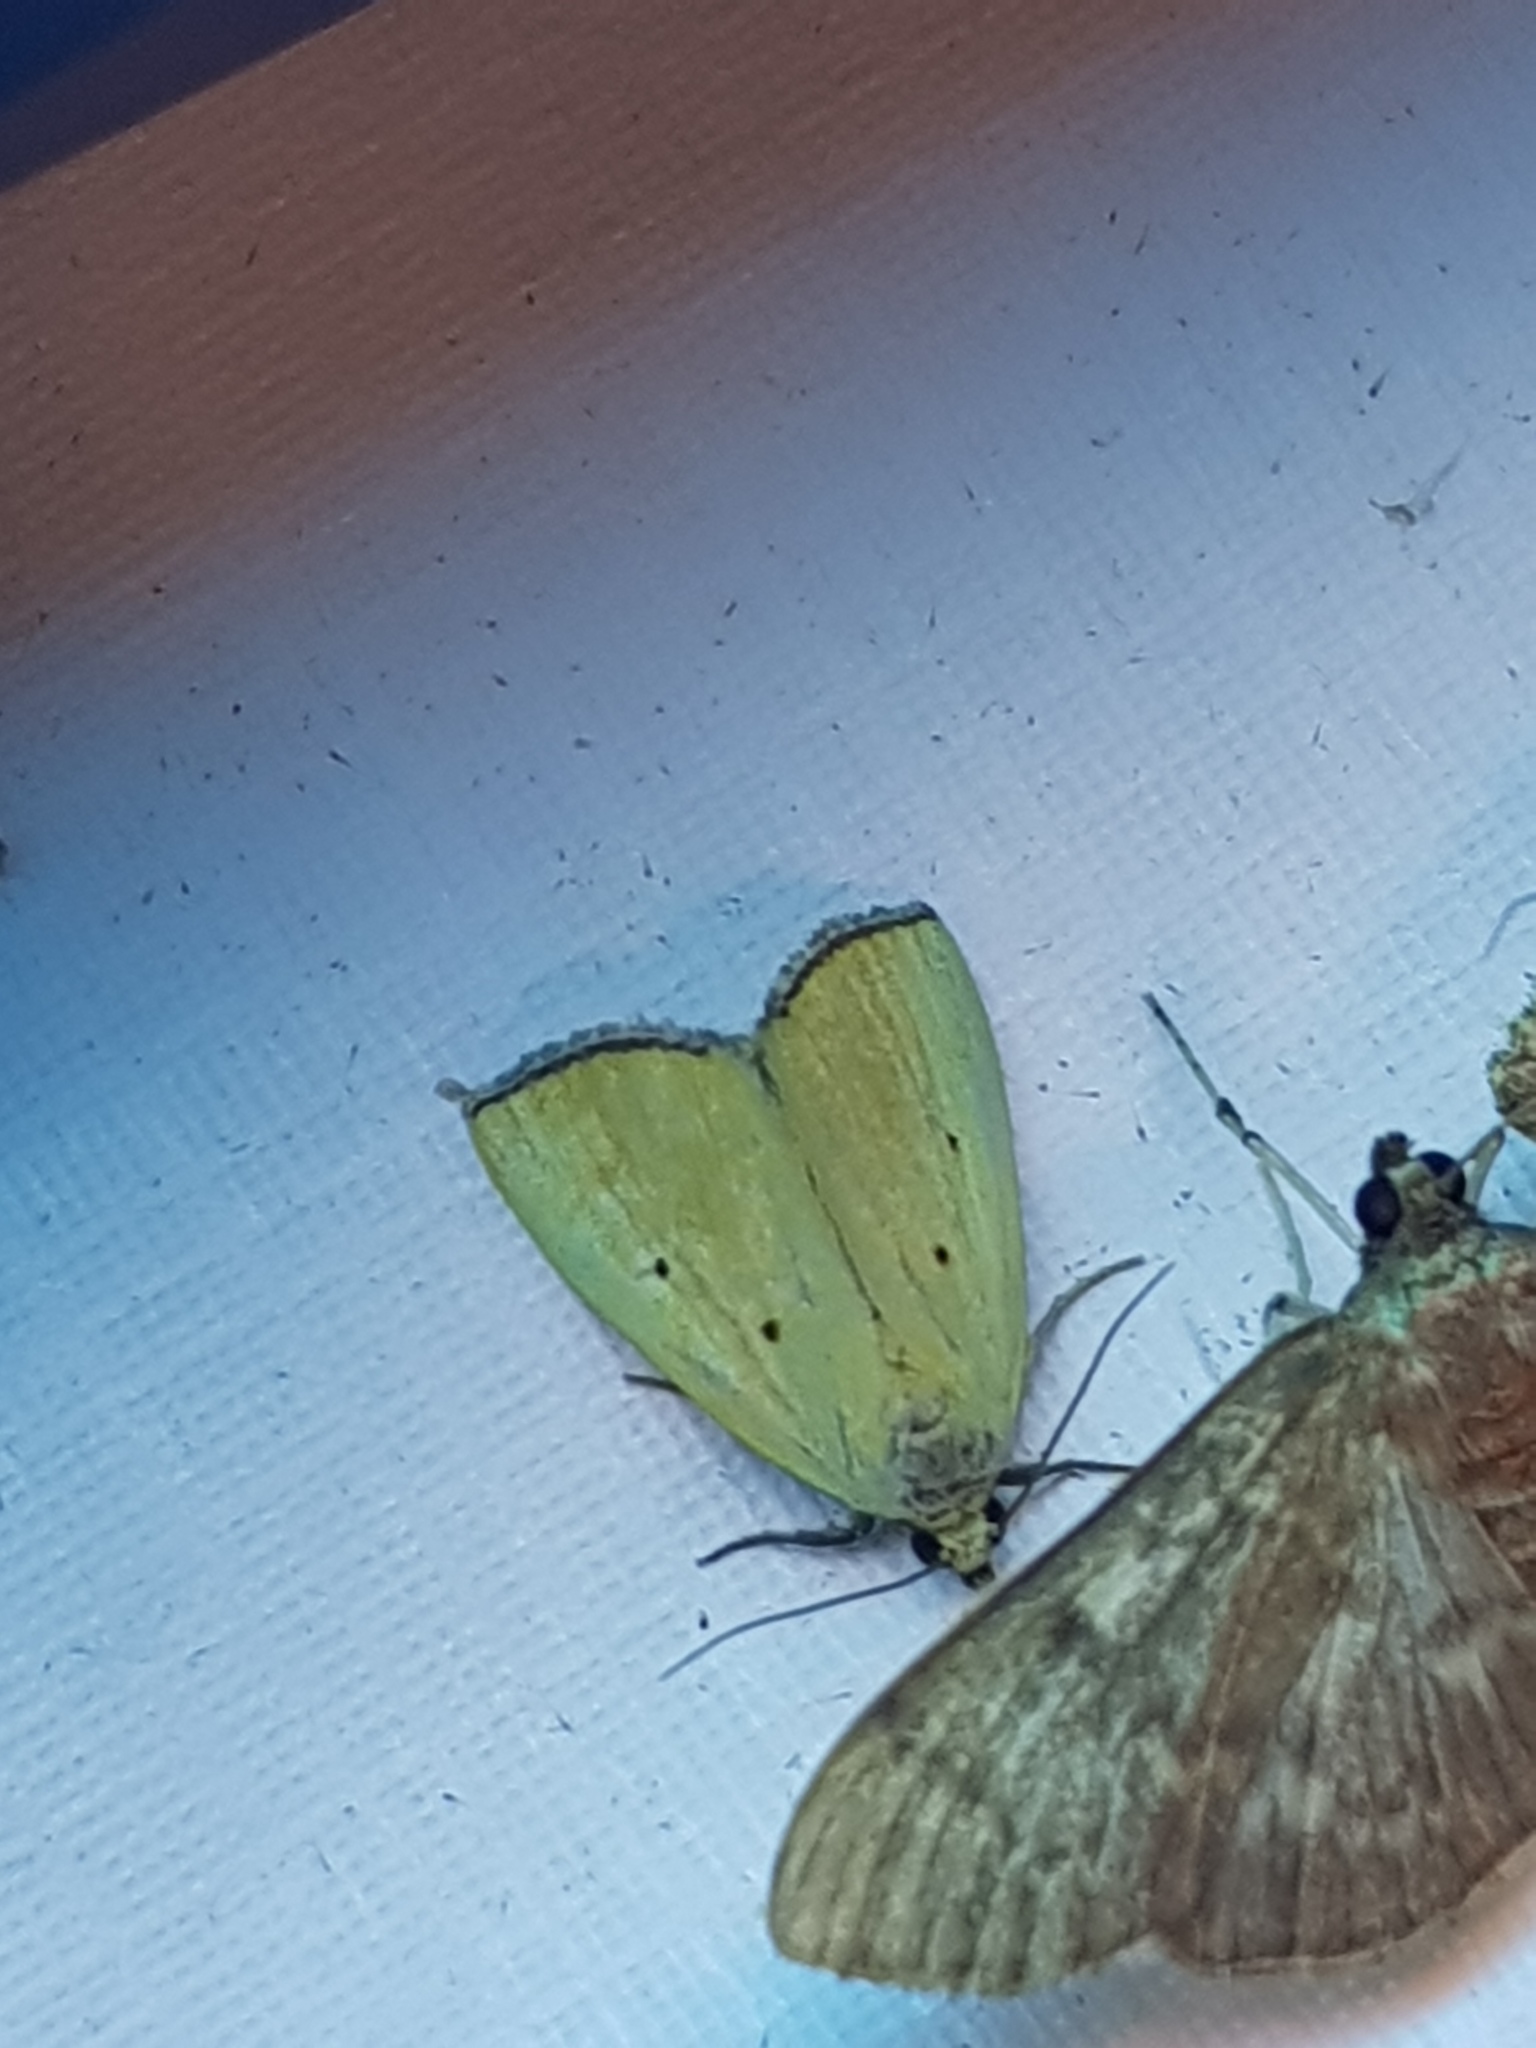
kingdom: Animalia
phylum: Arthropoda
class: Insecta
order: Lepidoptera
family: Noctuidae
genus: Marimatha
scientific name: Marimatha nigrofimbria
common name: Black-bordered lemon moth
